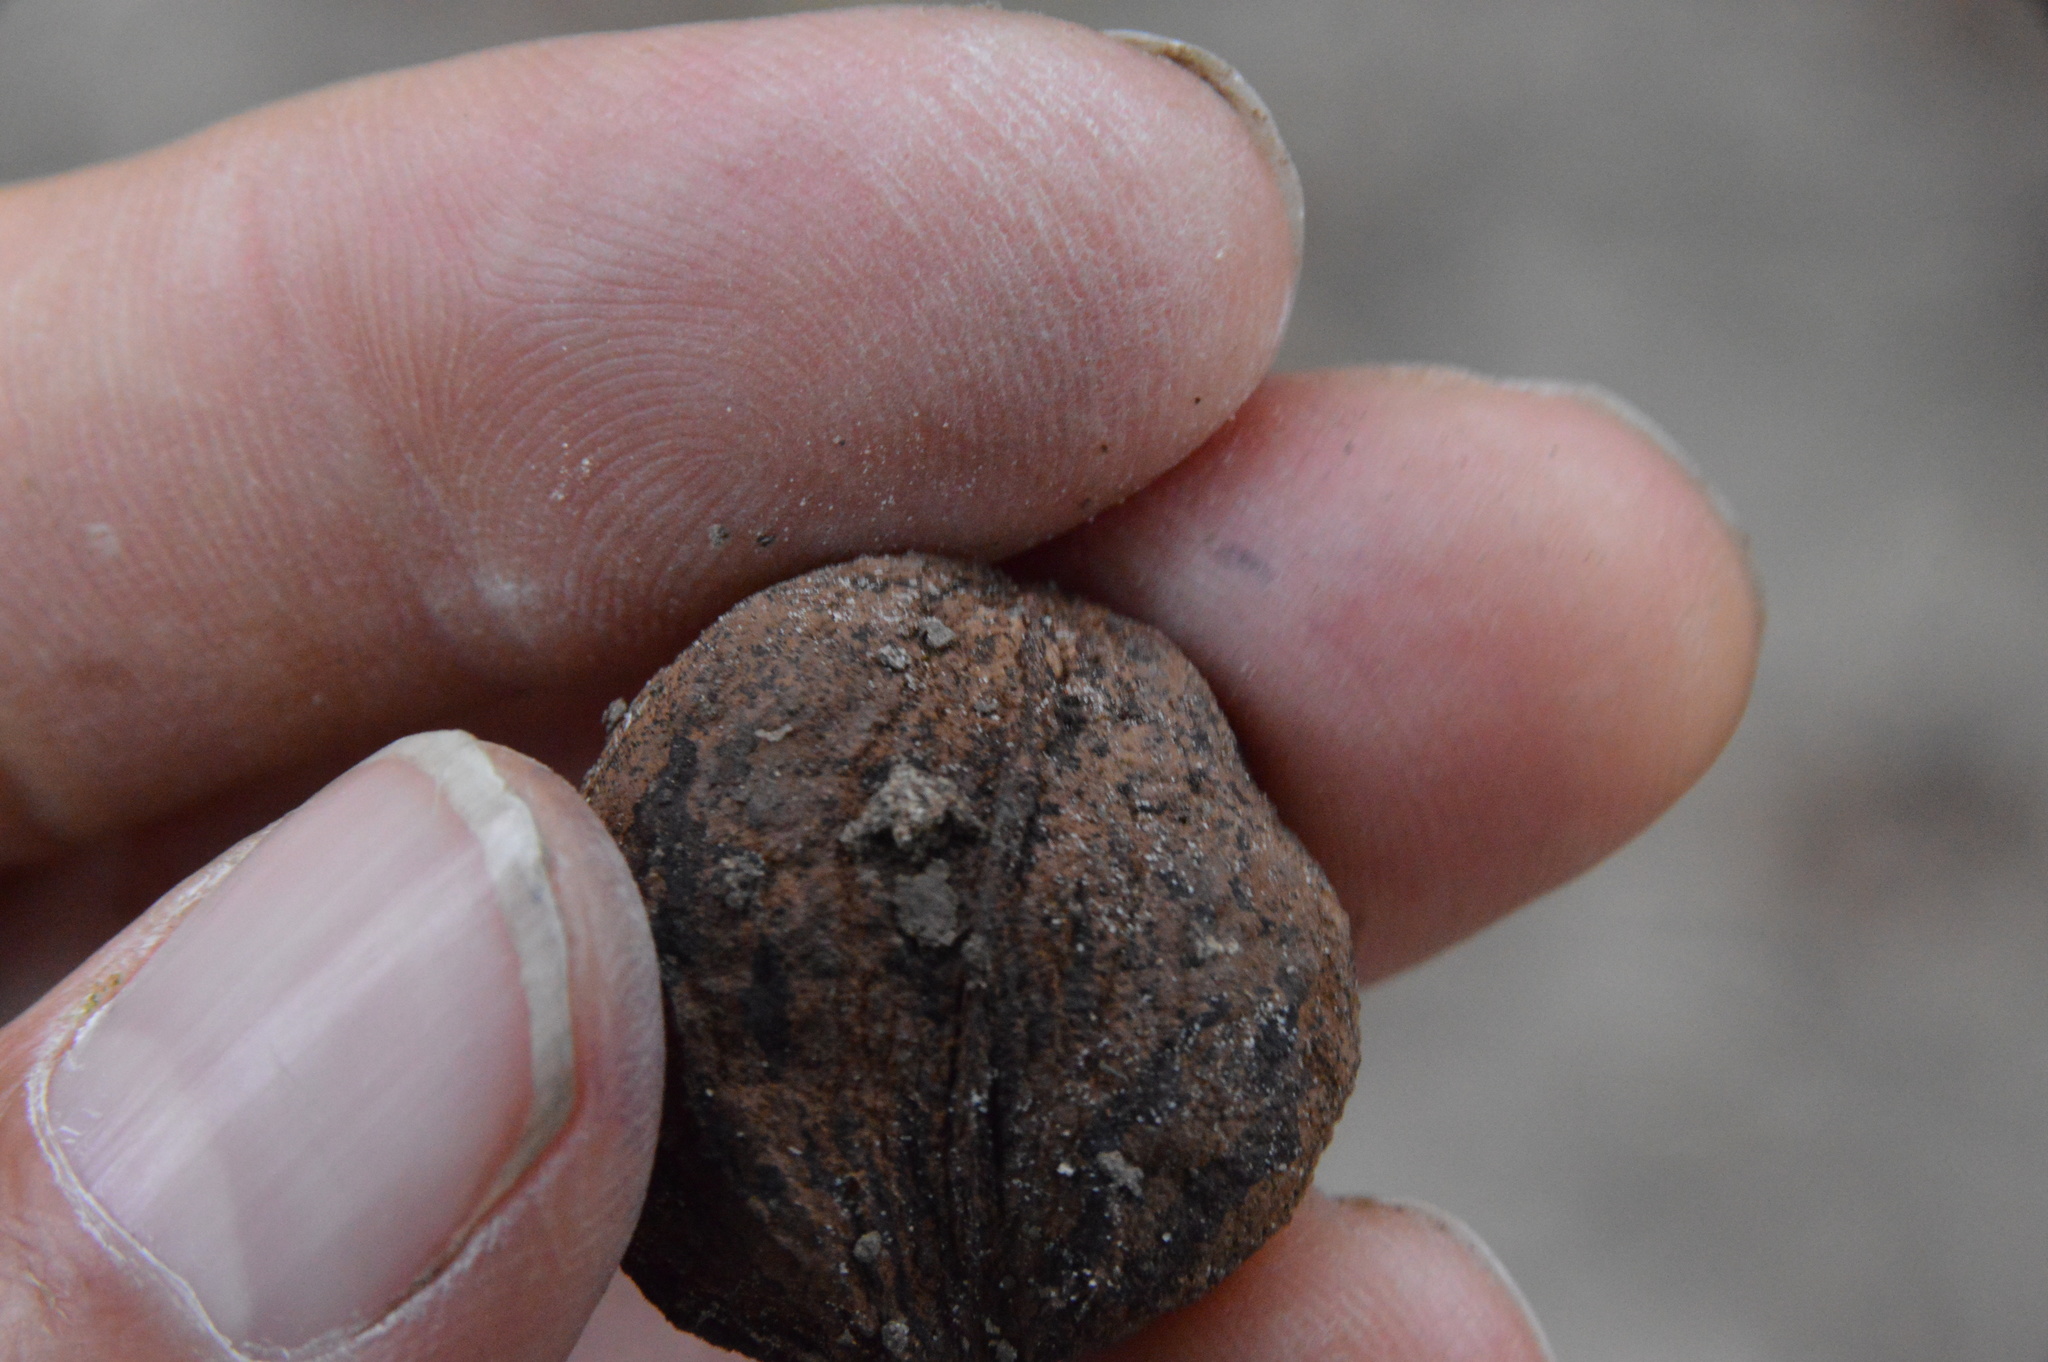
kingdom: Plantae
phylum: Tracheophyta
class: Magnoliopsida
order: Fagales
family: Juglandaceae
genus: Carya
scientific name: Carya aquatica
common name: Water hickory
